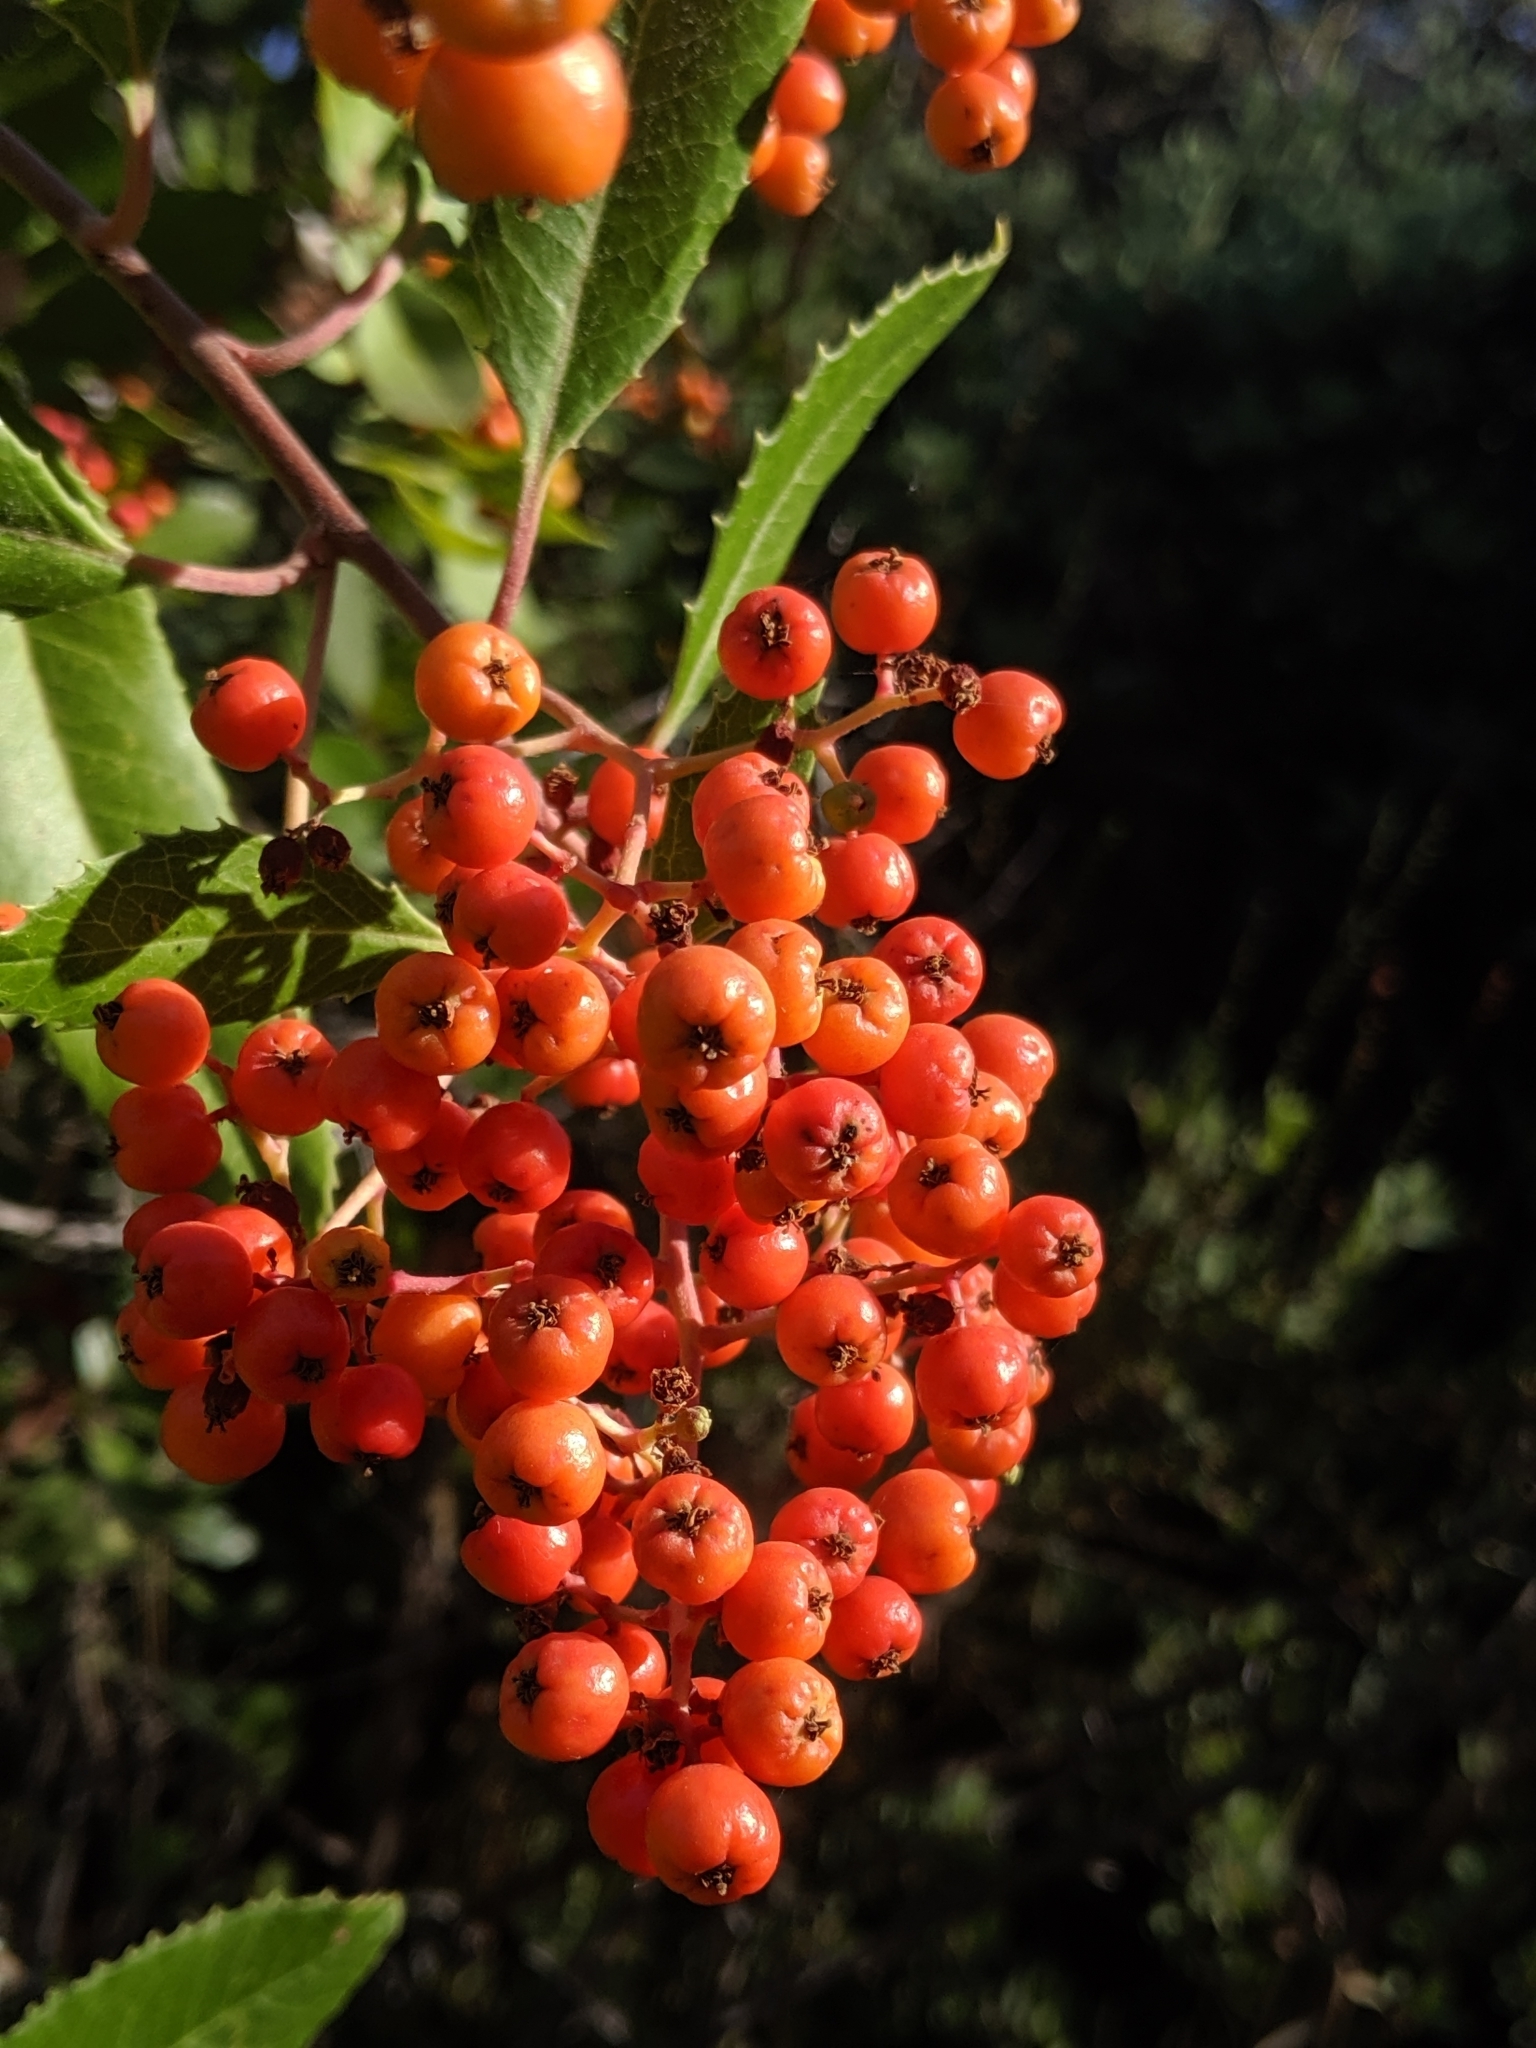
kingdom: Plantae
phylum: Tracheophyta
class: Magnoliopsida
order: Rosales
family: Rosaceae
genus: Heteromeles
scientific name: Heteromeles arbutifolia
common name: California-holly
